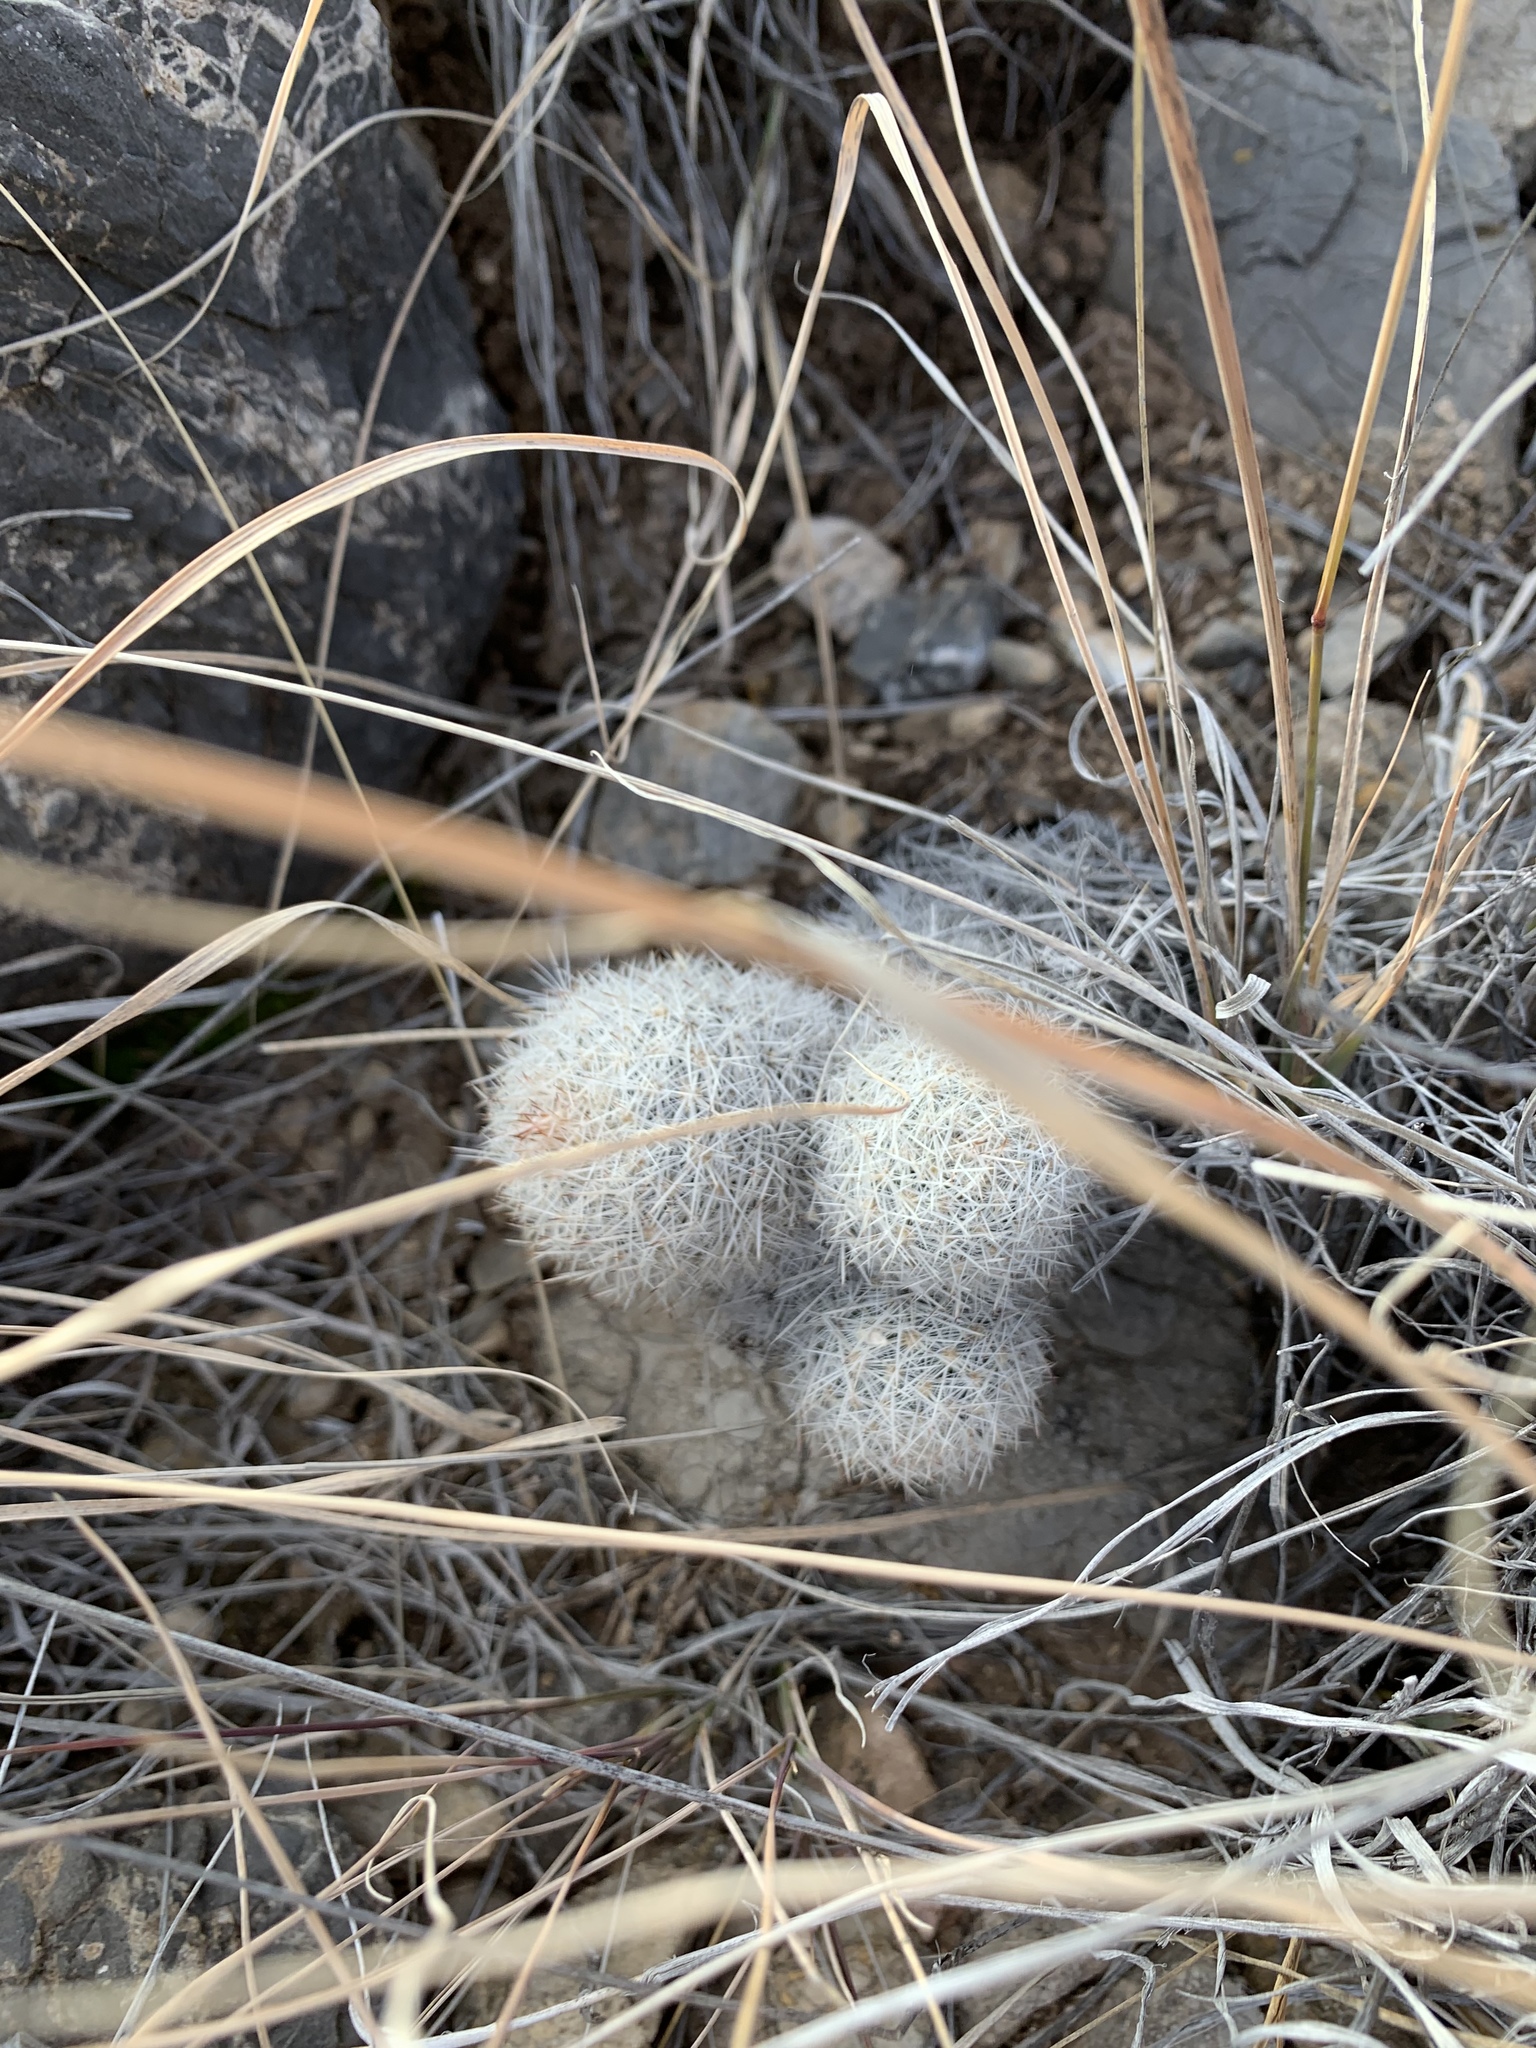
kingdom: Plantae
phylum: Tracheophyta
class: Magnoliopsida
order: Caryophyllales
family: Cactaceae
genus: Pelecyphora
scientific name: Pelecyphora sneedii
